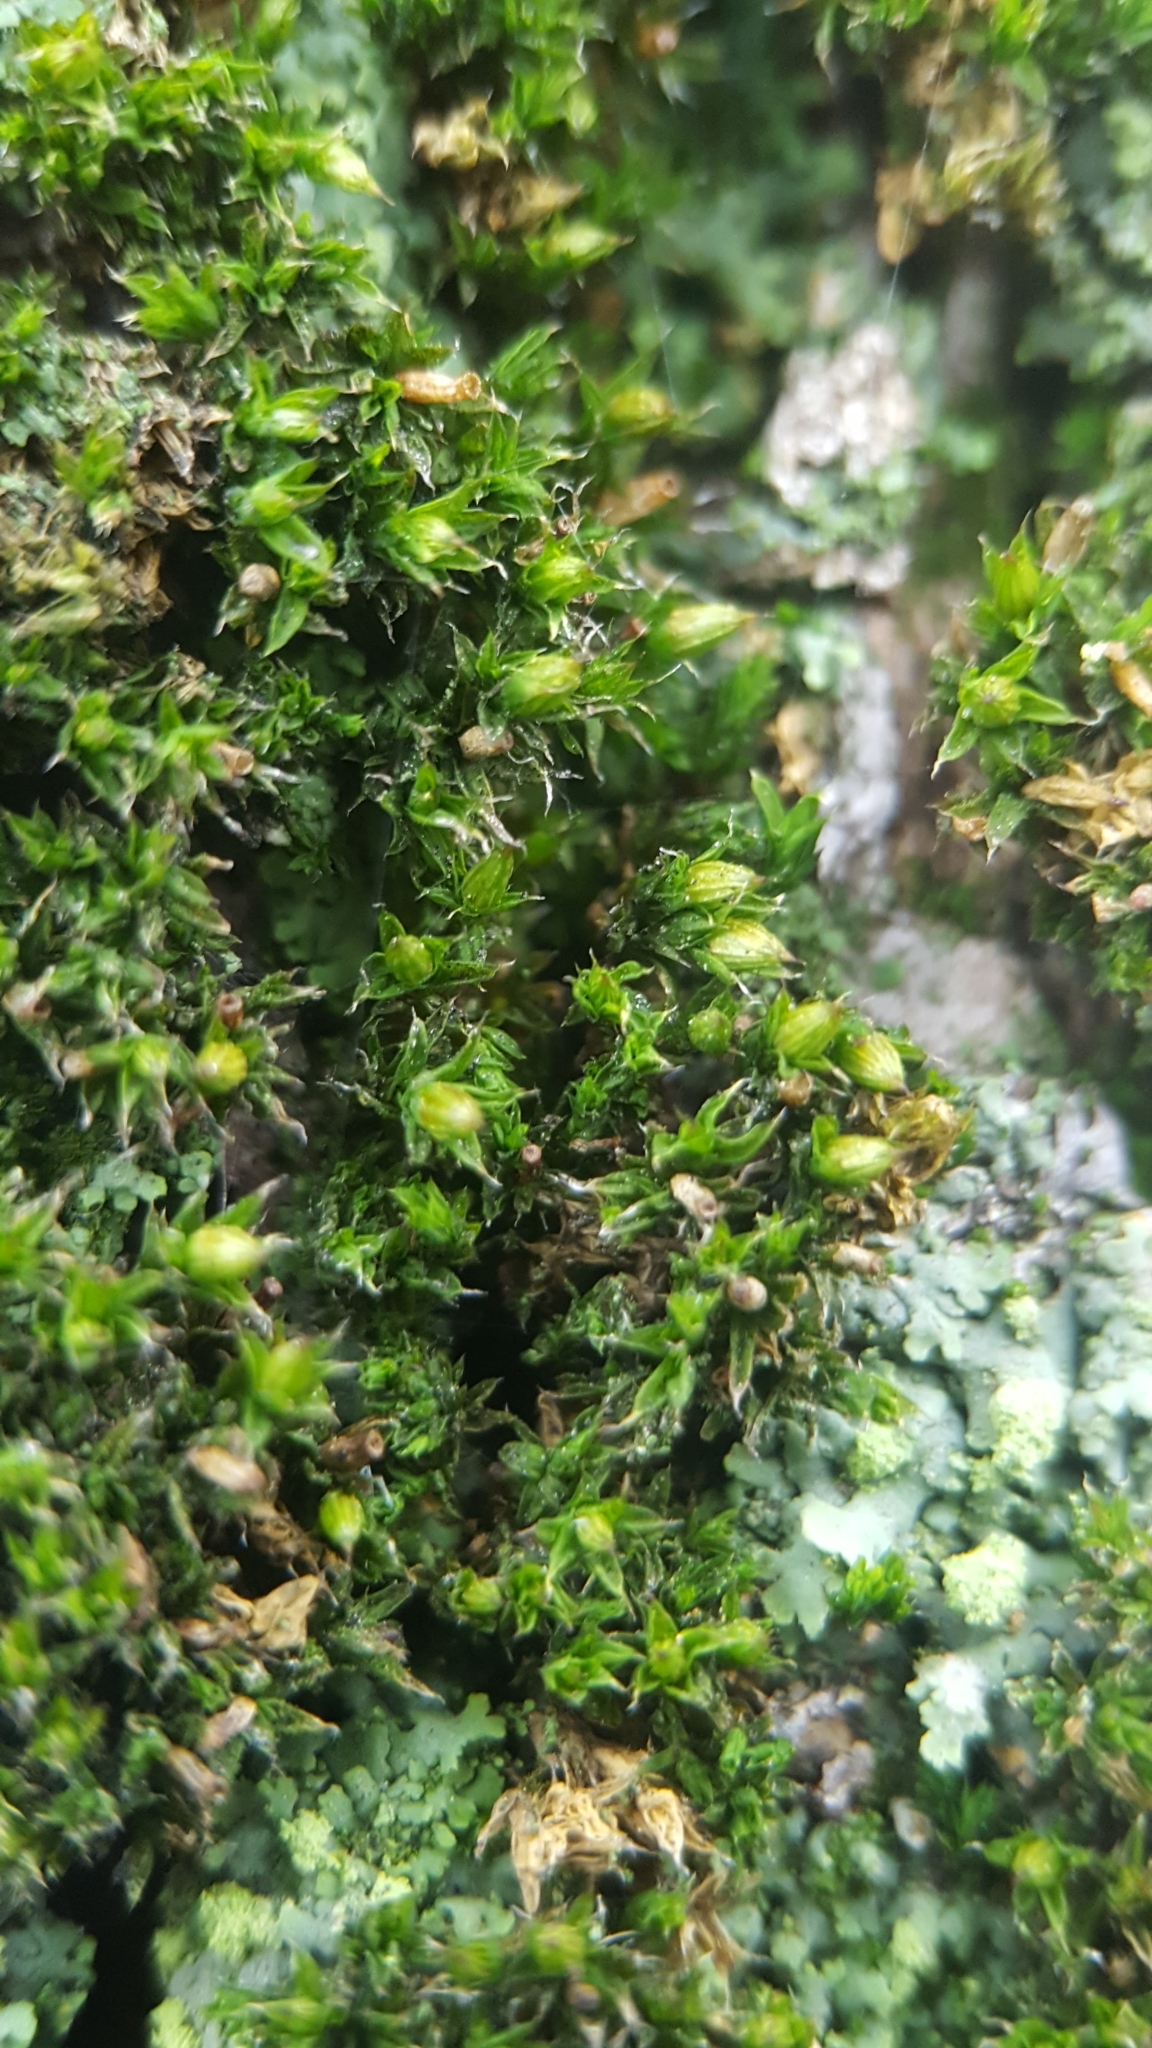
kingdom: Plantae
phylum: Bryophyta
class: Bryopsida
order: Orthotrichales
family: Orthotrichaceae
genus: Orthotrichum
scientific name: Orthotrichum diaphanum
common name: White-tipped bristle-moss
